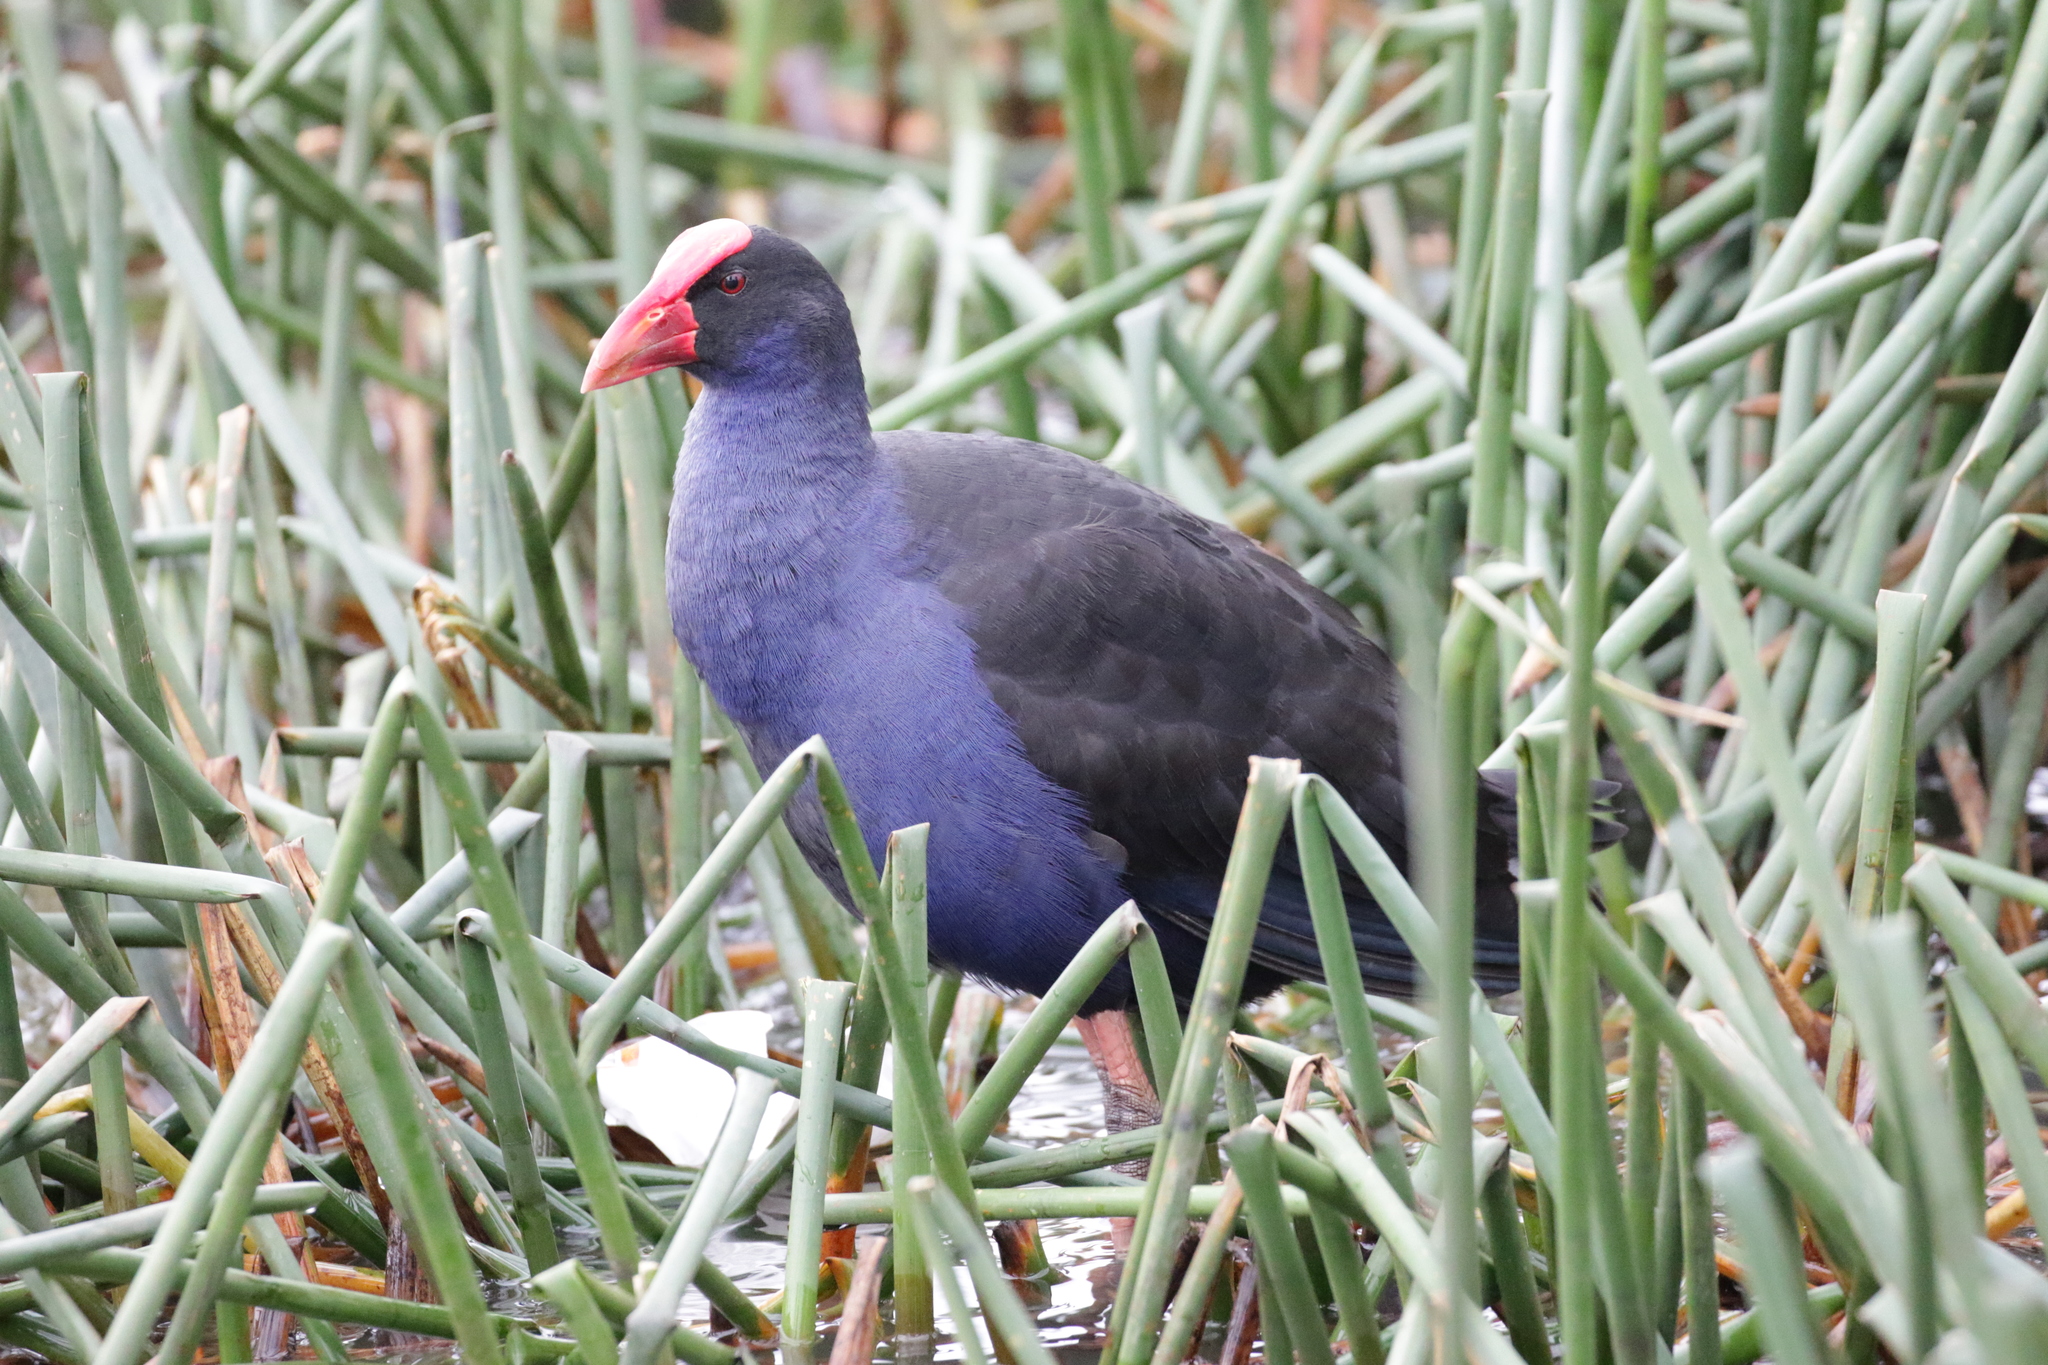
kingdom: Animalia
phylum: Chordata
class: Aves
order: Gruiformes
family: Rallidae
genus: Porphyrio
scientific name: Porphyrio melanotus
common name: Australasian swamphen
